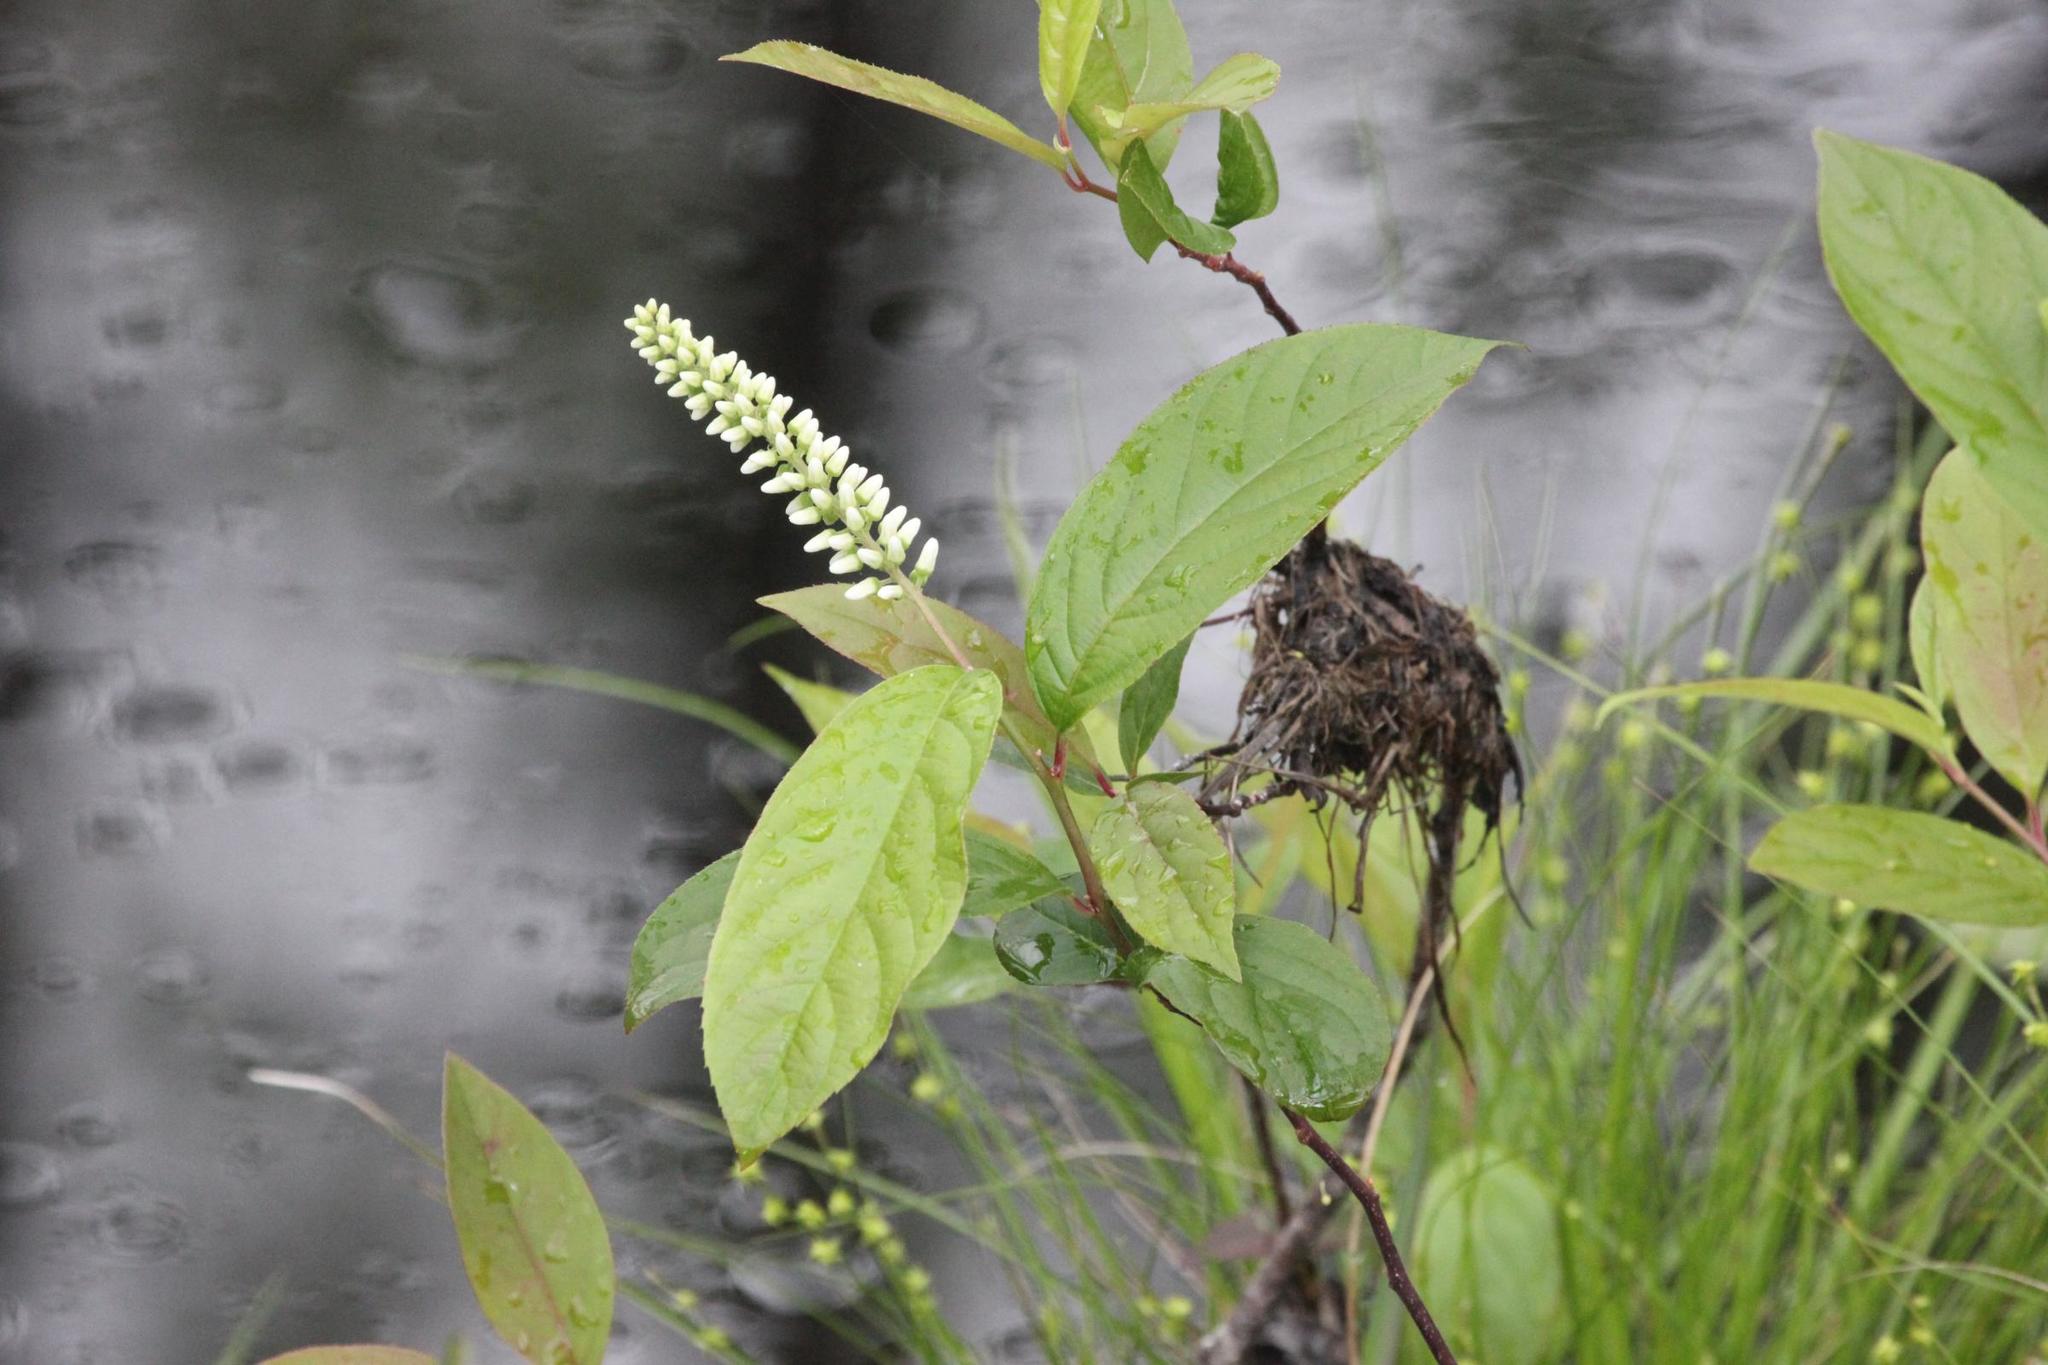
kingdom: Plantae
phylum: Tracheophyta
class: Magnoliopsida
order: Saxifragales
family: Iteaceae
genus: Itea
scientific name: Itea virginica
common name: Sweetspire
